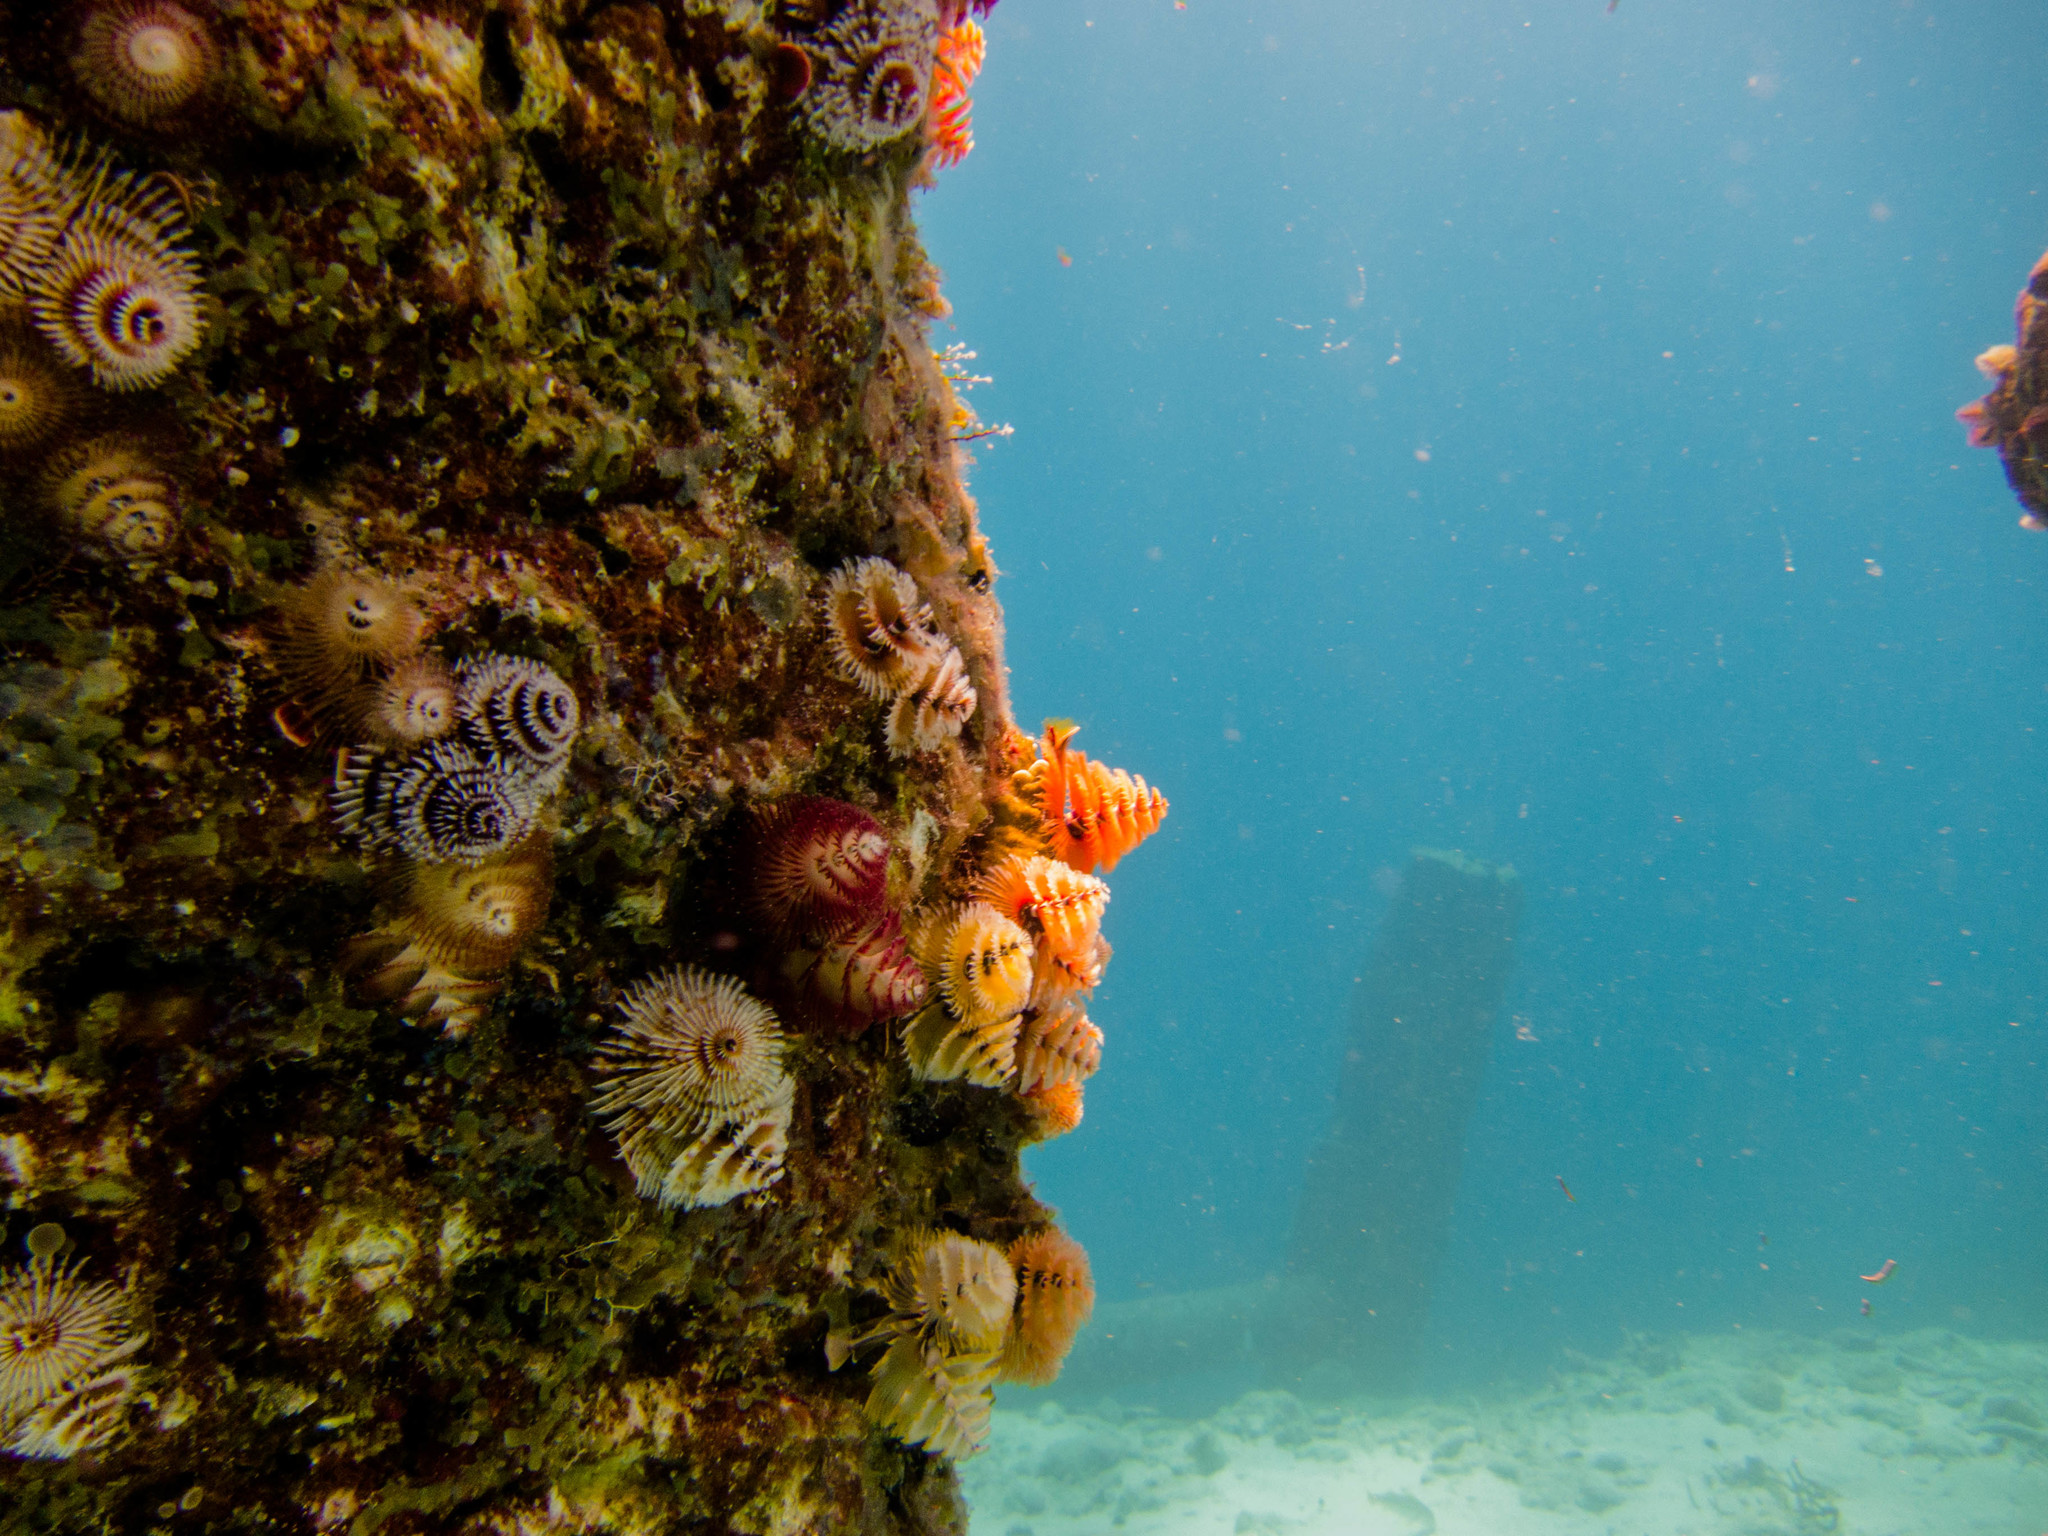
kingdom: Animalia
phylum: Annelida
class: Polychaeta
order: Sabellida
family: Serpulidae
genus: Spirobranchus
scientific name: Spirobranchus giganteus
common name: Christmas tree worm
